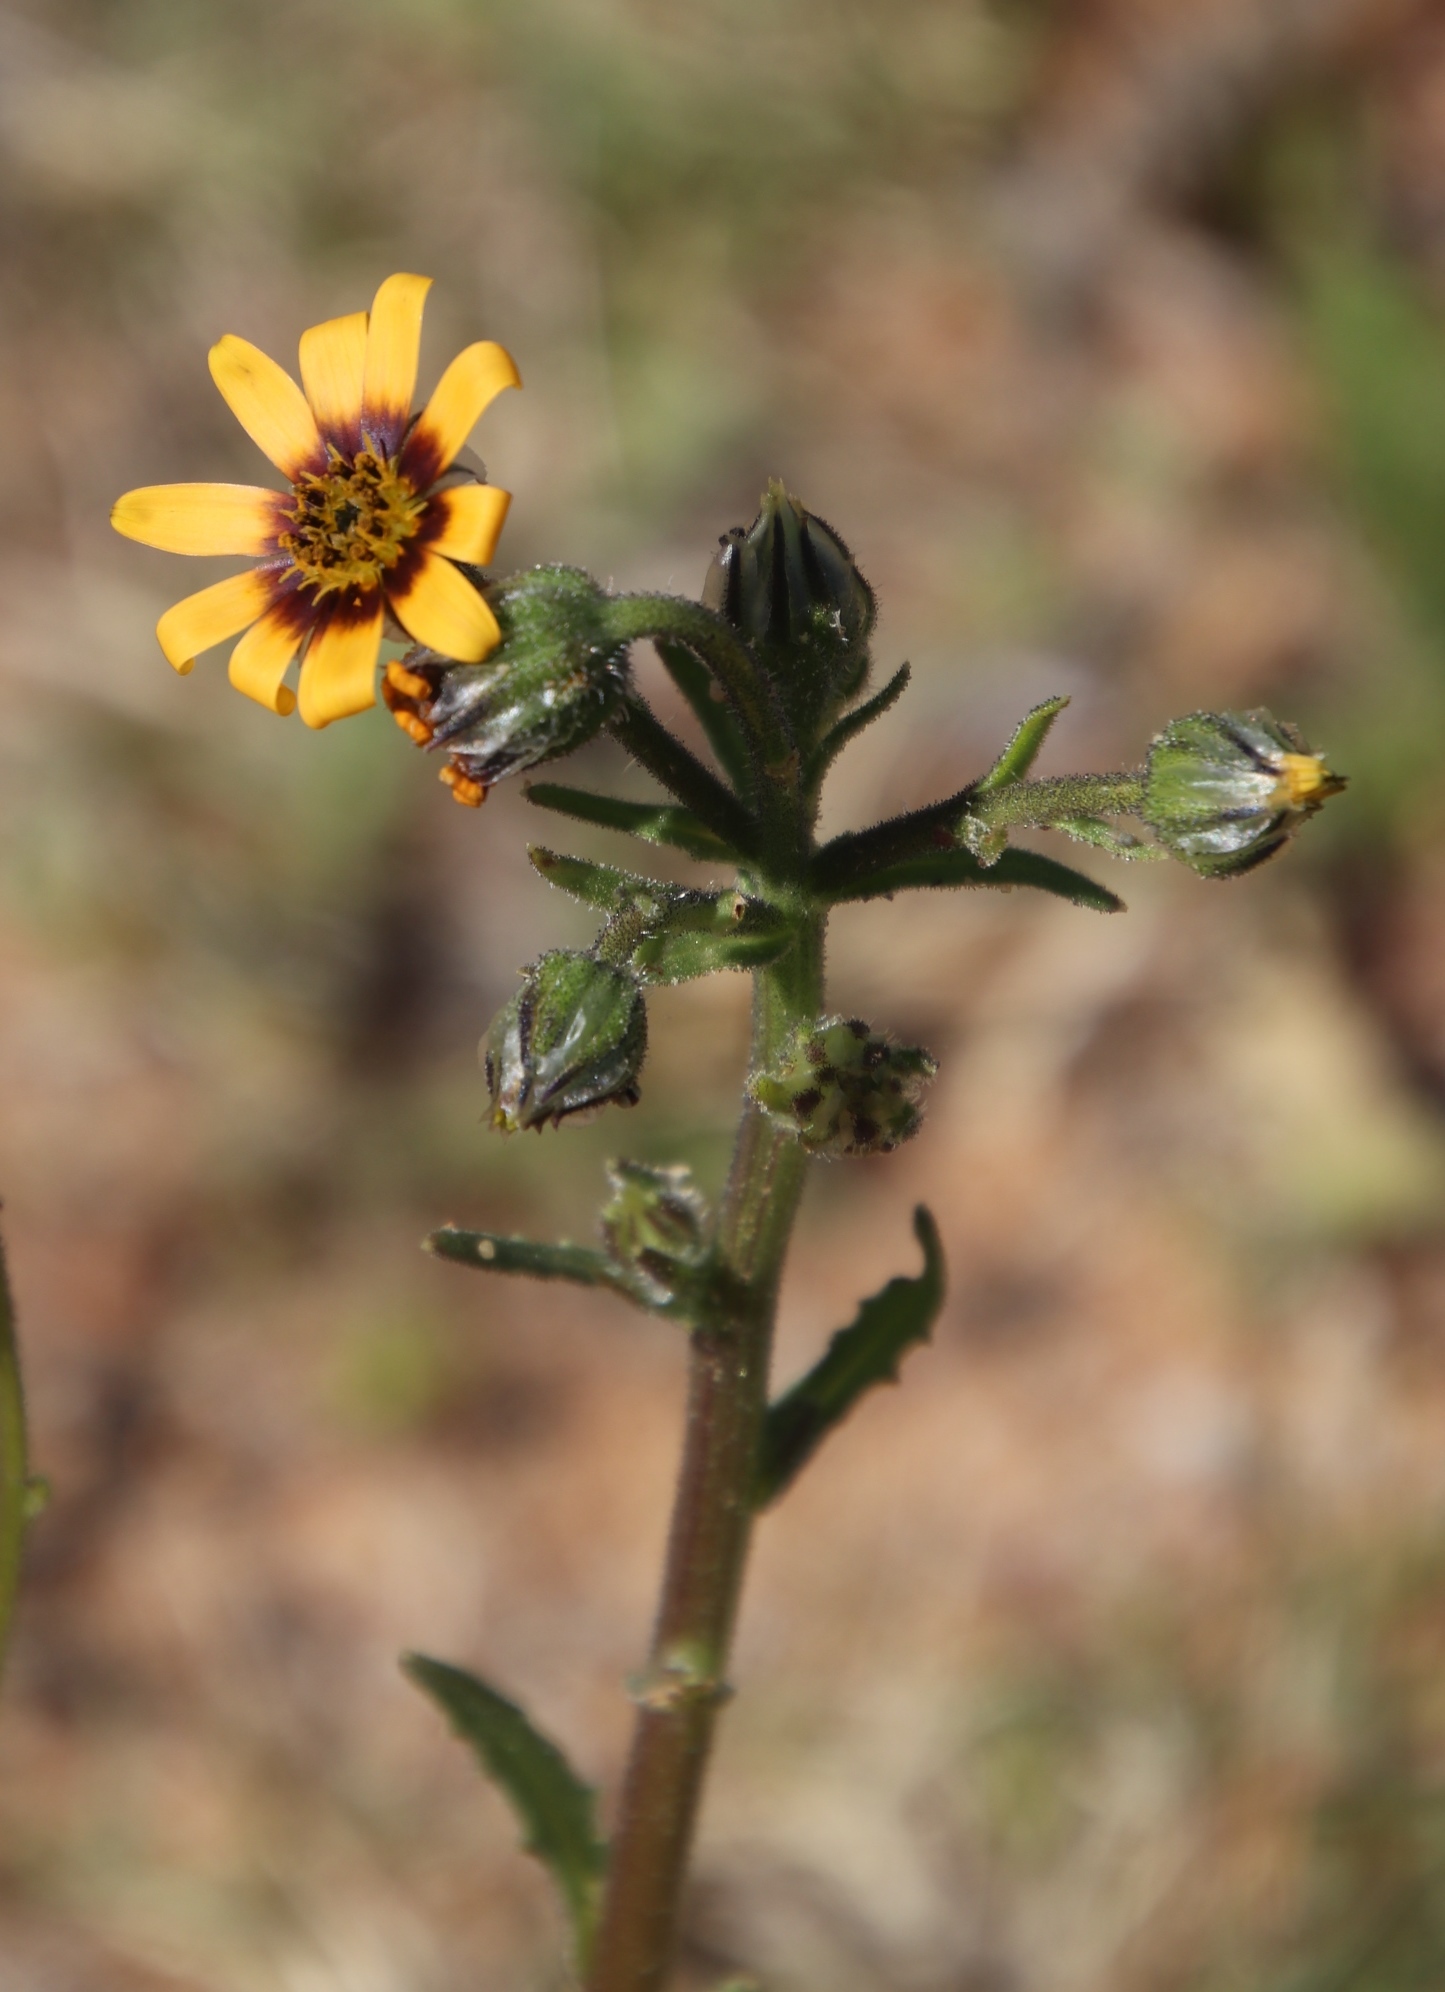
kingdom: Plantae
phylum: Tracheophyta
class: Magnoliopsida
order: Asterales
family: Asteraceae
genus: Osteospermum
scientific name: Osteospermum monstrosum
